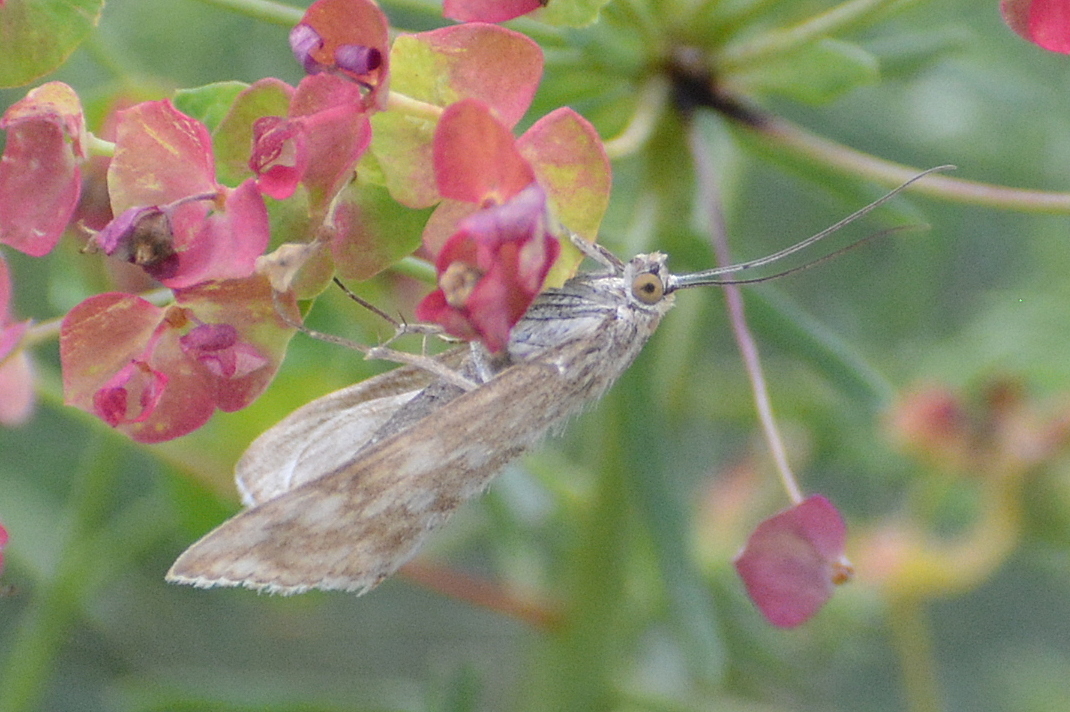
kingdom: Animalia
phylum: Arthropoda
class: Insecta
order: Lepidoptera
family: Crambidae
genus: Evergestis
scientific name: Evergestis frumentalis
